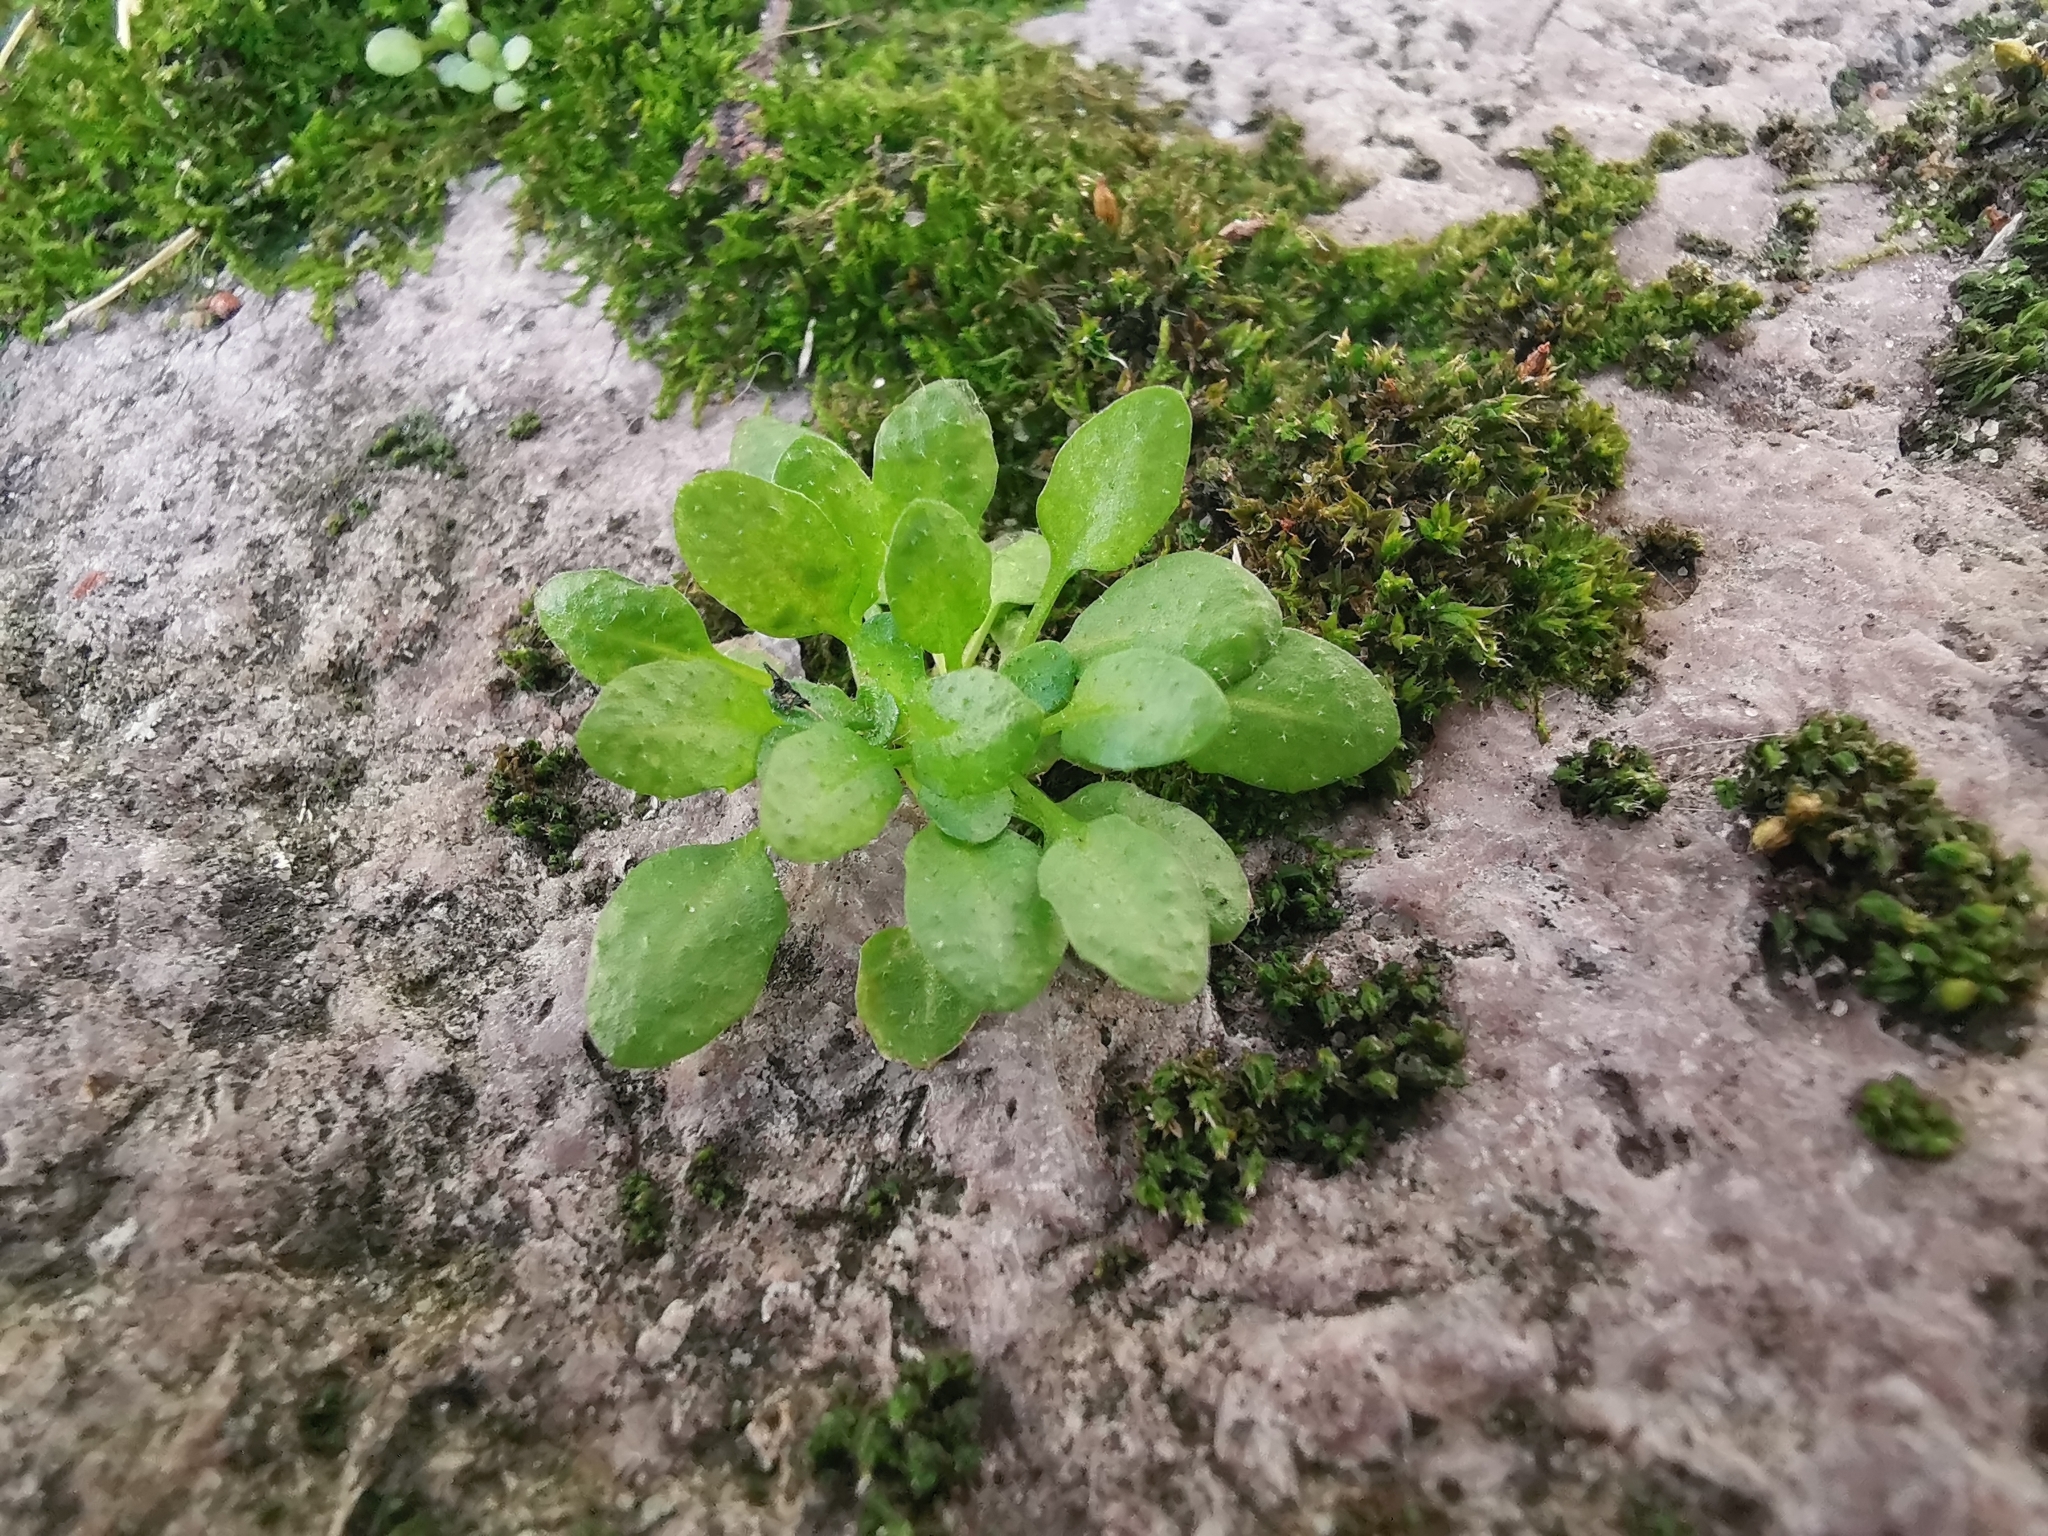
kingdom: Plantae
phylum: Tracheophyta
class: Magnoliopsida
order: Brassicales
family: Brassicaceae
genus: Arabidopsis
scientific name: Arabidopsis thaliana
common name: Thale cress
